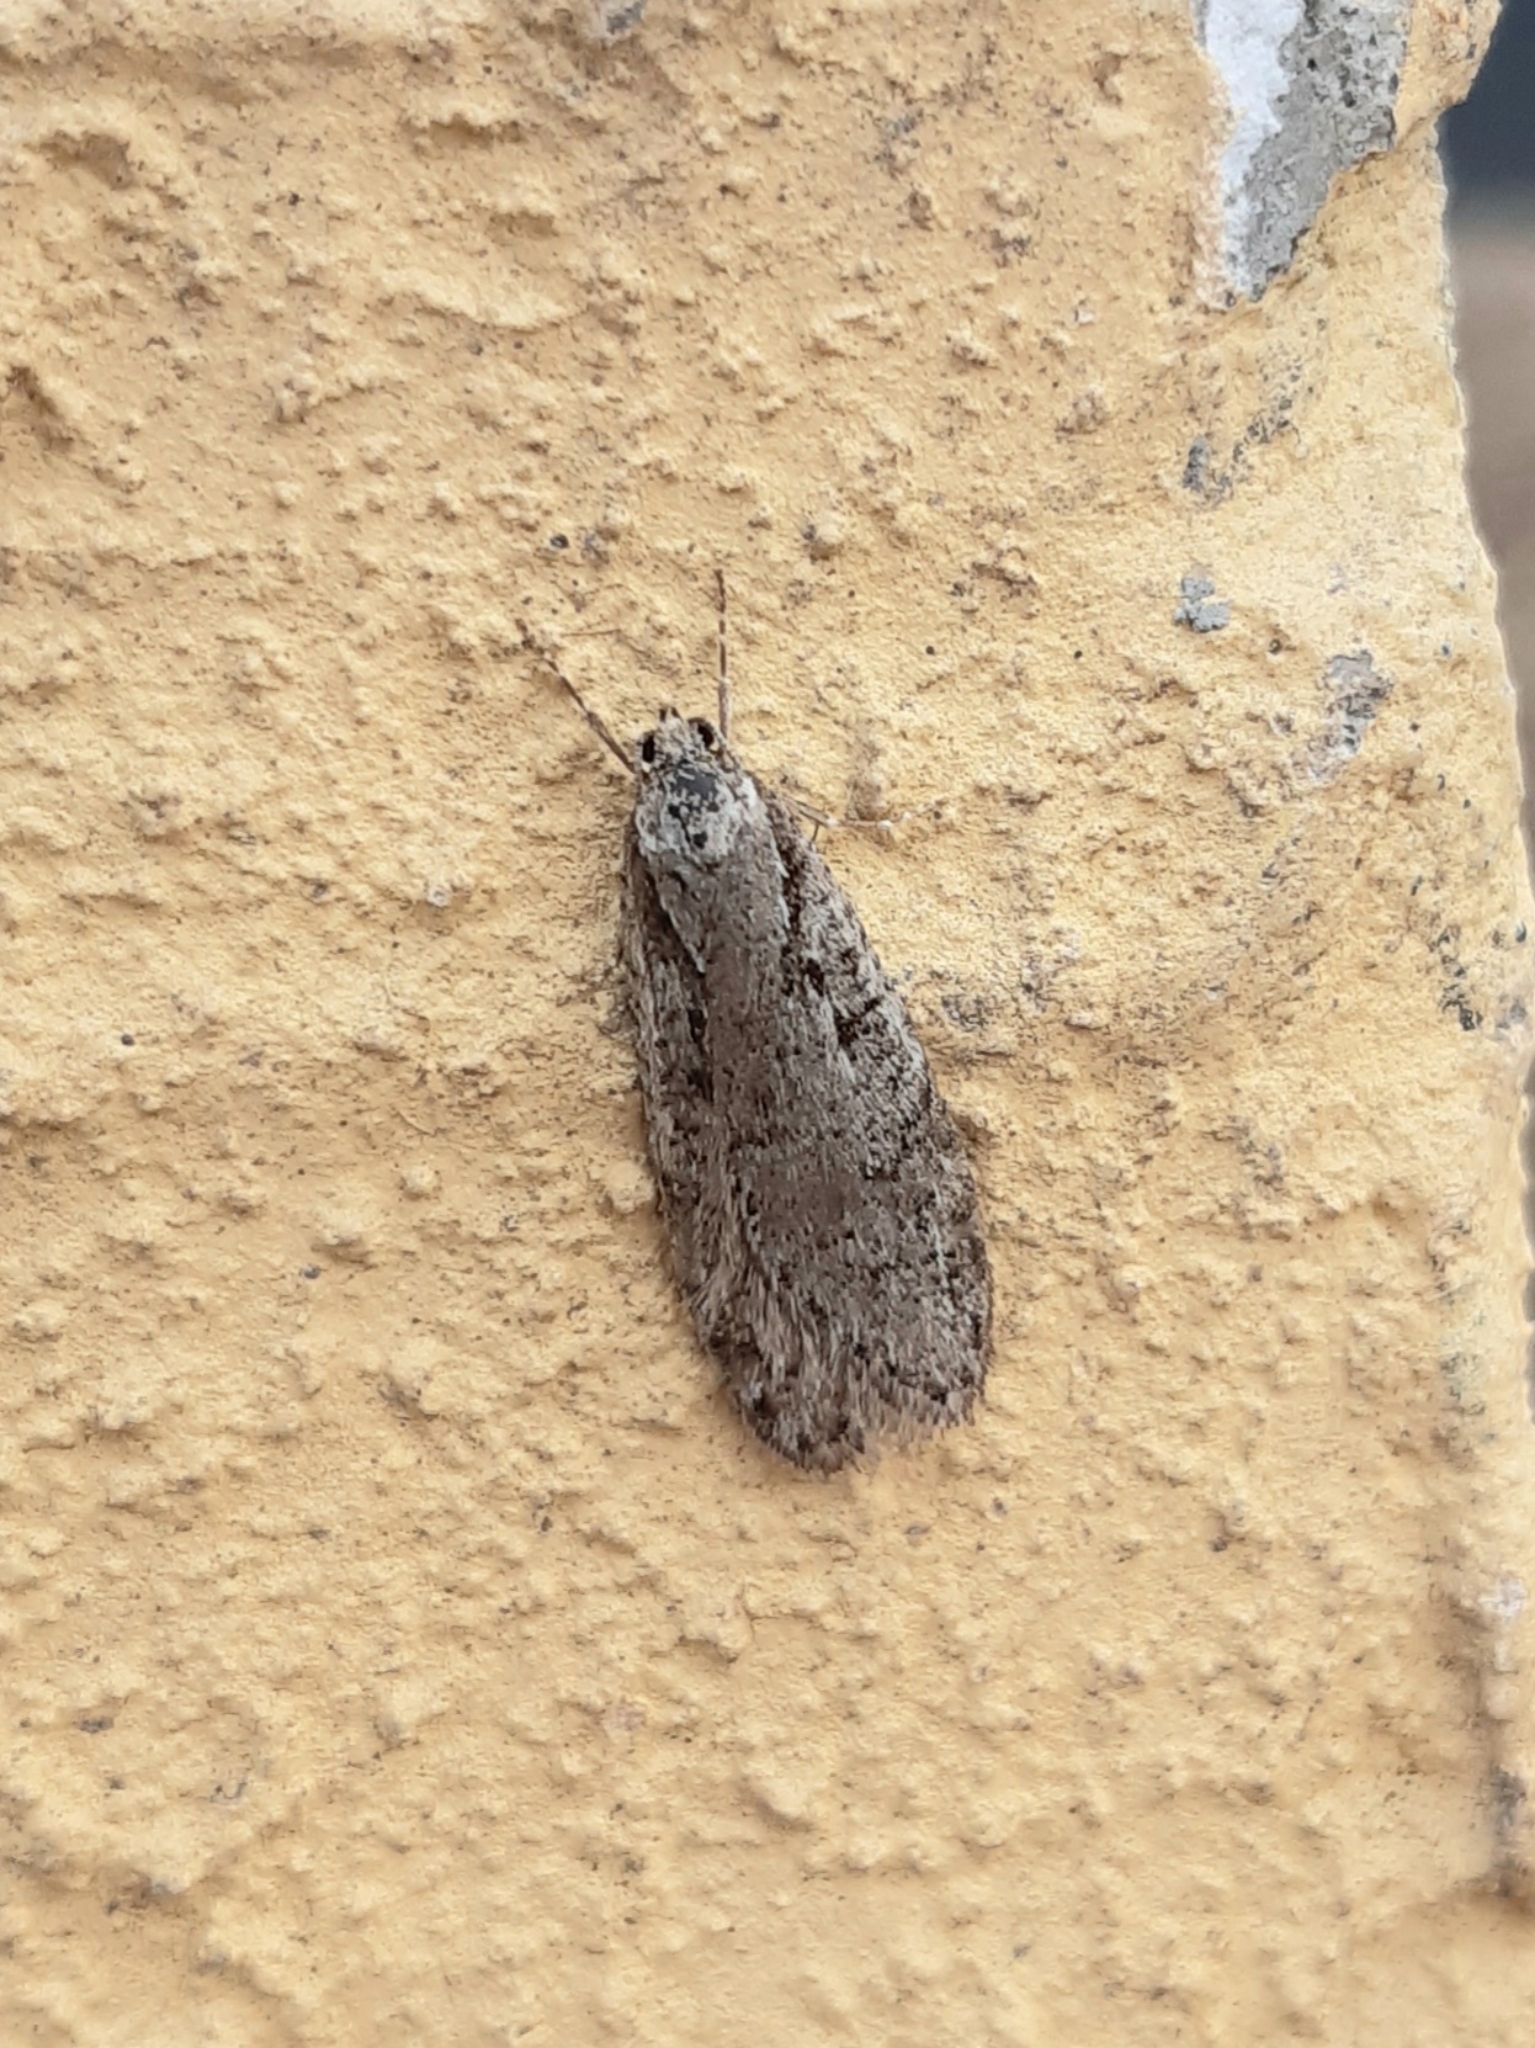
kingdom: Animalia
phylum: Arthropoda
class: Insecta
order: Lepidoptera
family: Depressariidae
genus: Semioscopis
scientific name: Semioscopis avellanella
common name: Early flat-body
